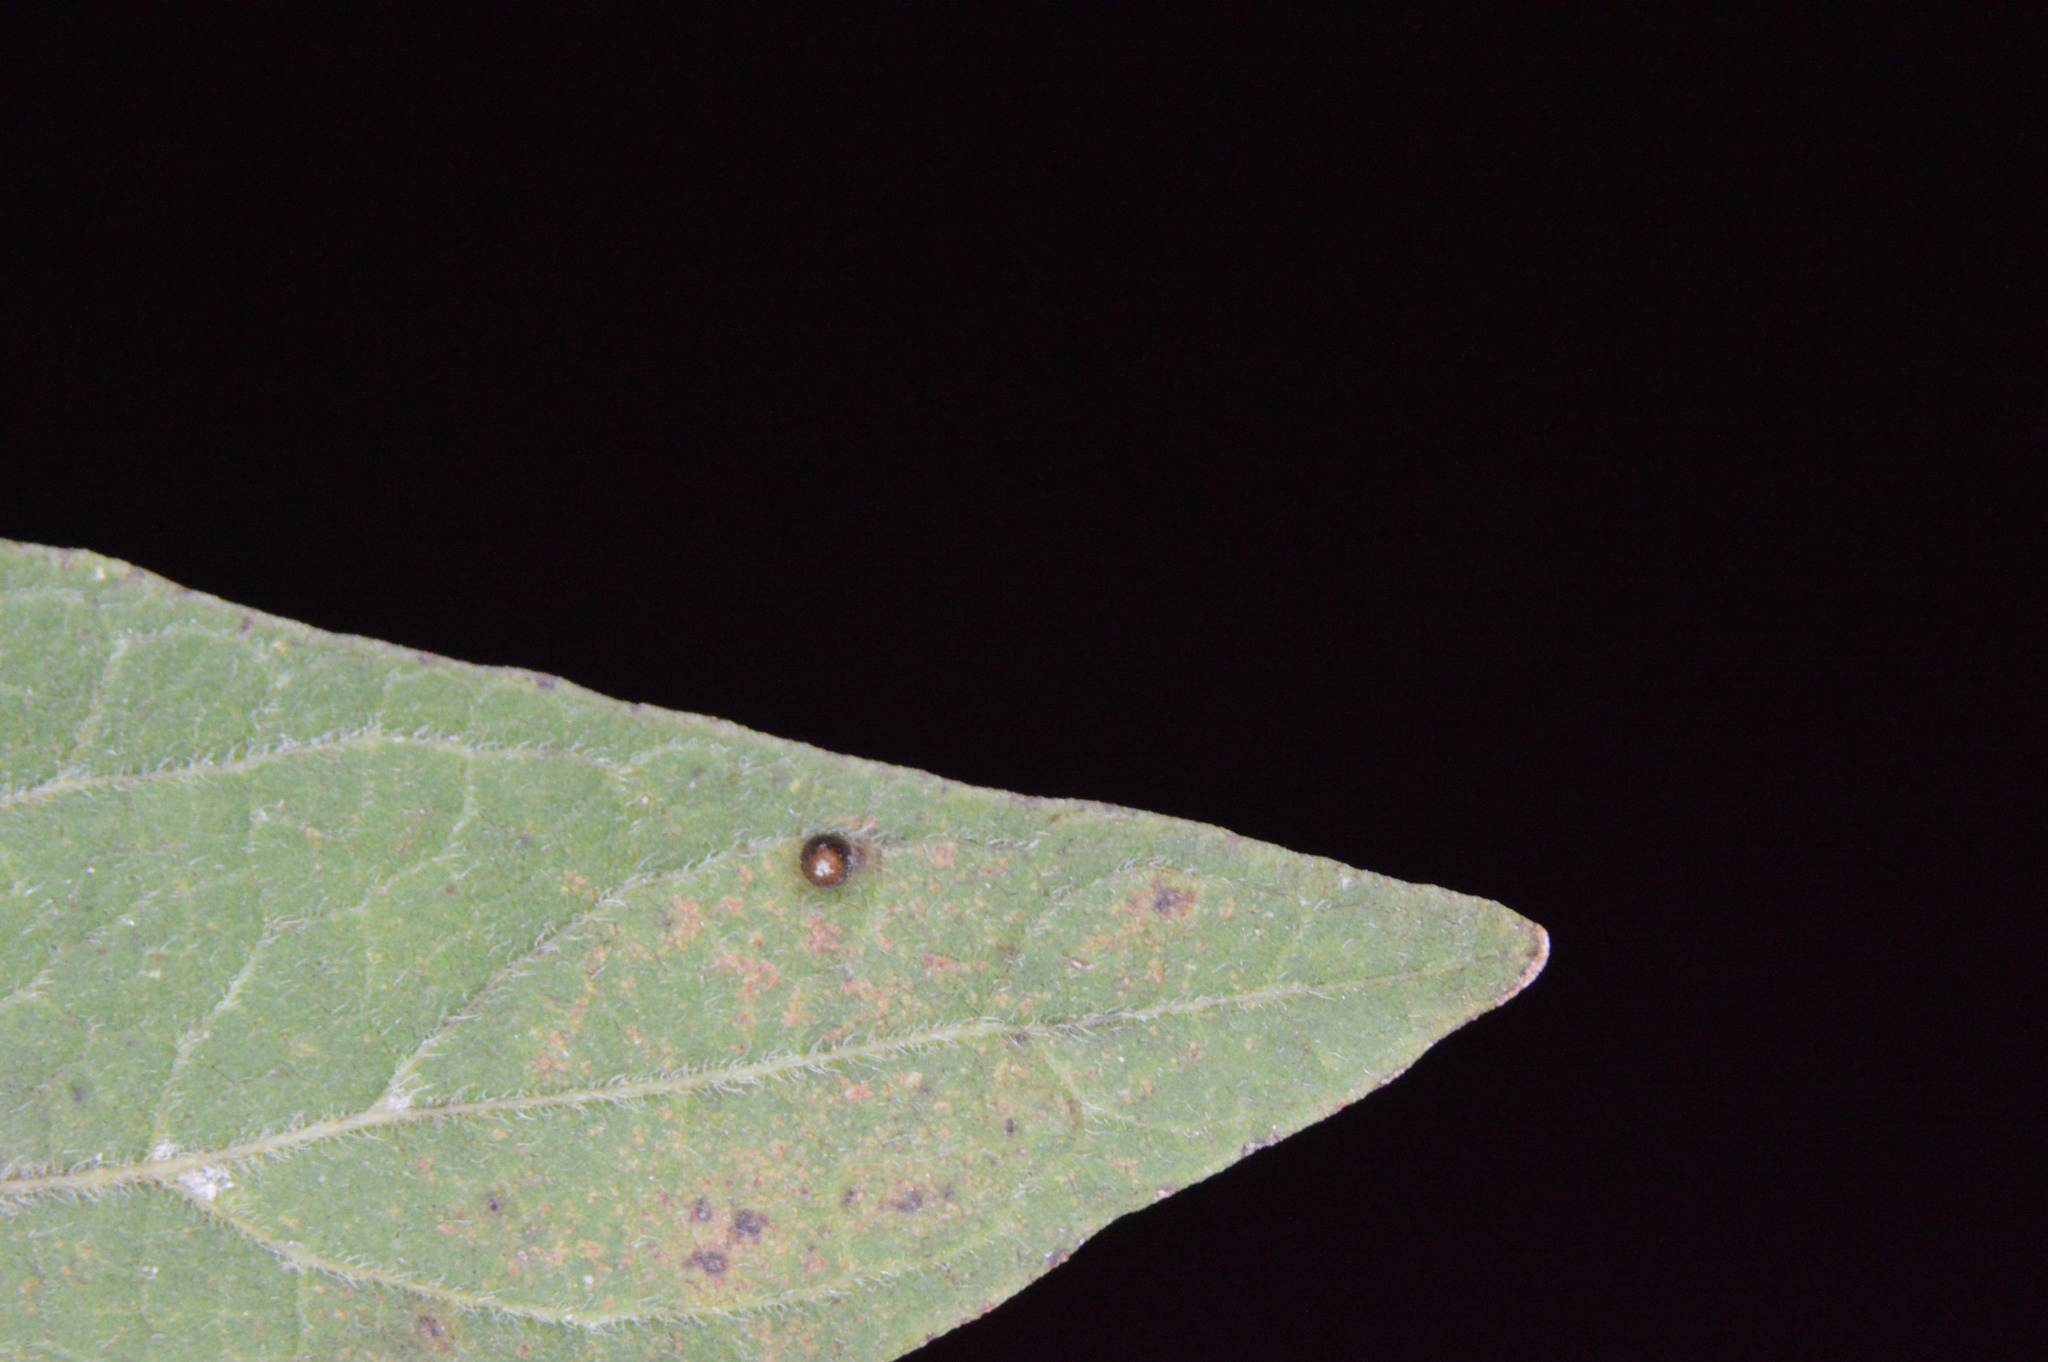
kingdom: Animalia
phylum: Arthropoda
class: Insecta
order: Diptera
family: Cecidomyiidae
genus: Celticecis
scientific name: Celticecis cupiformis
